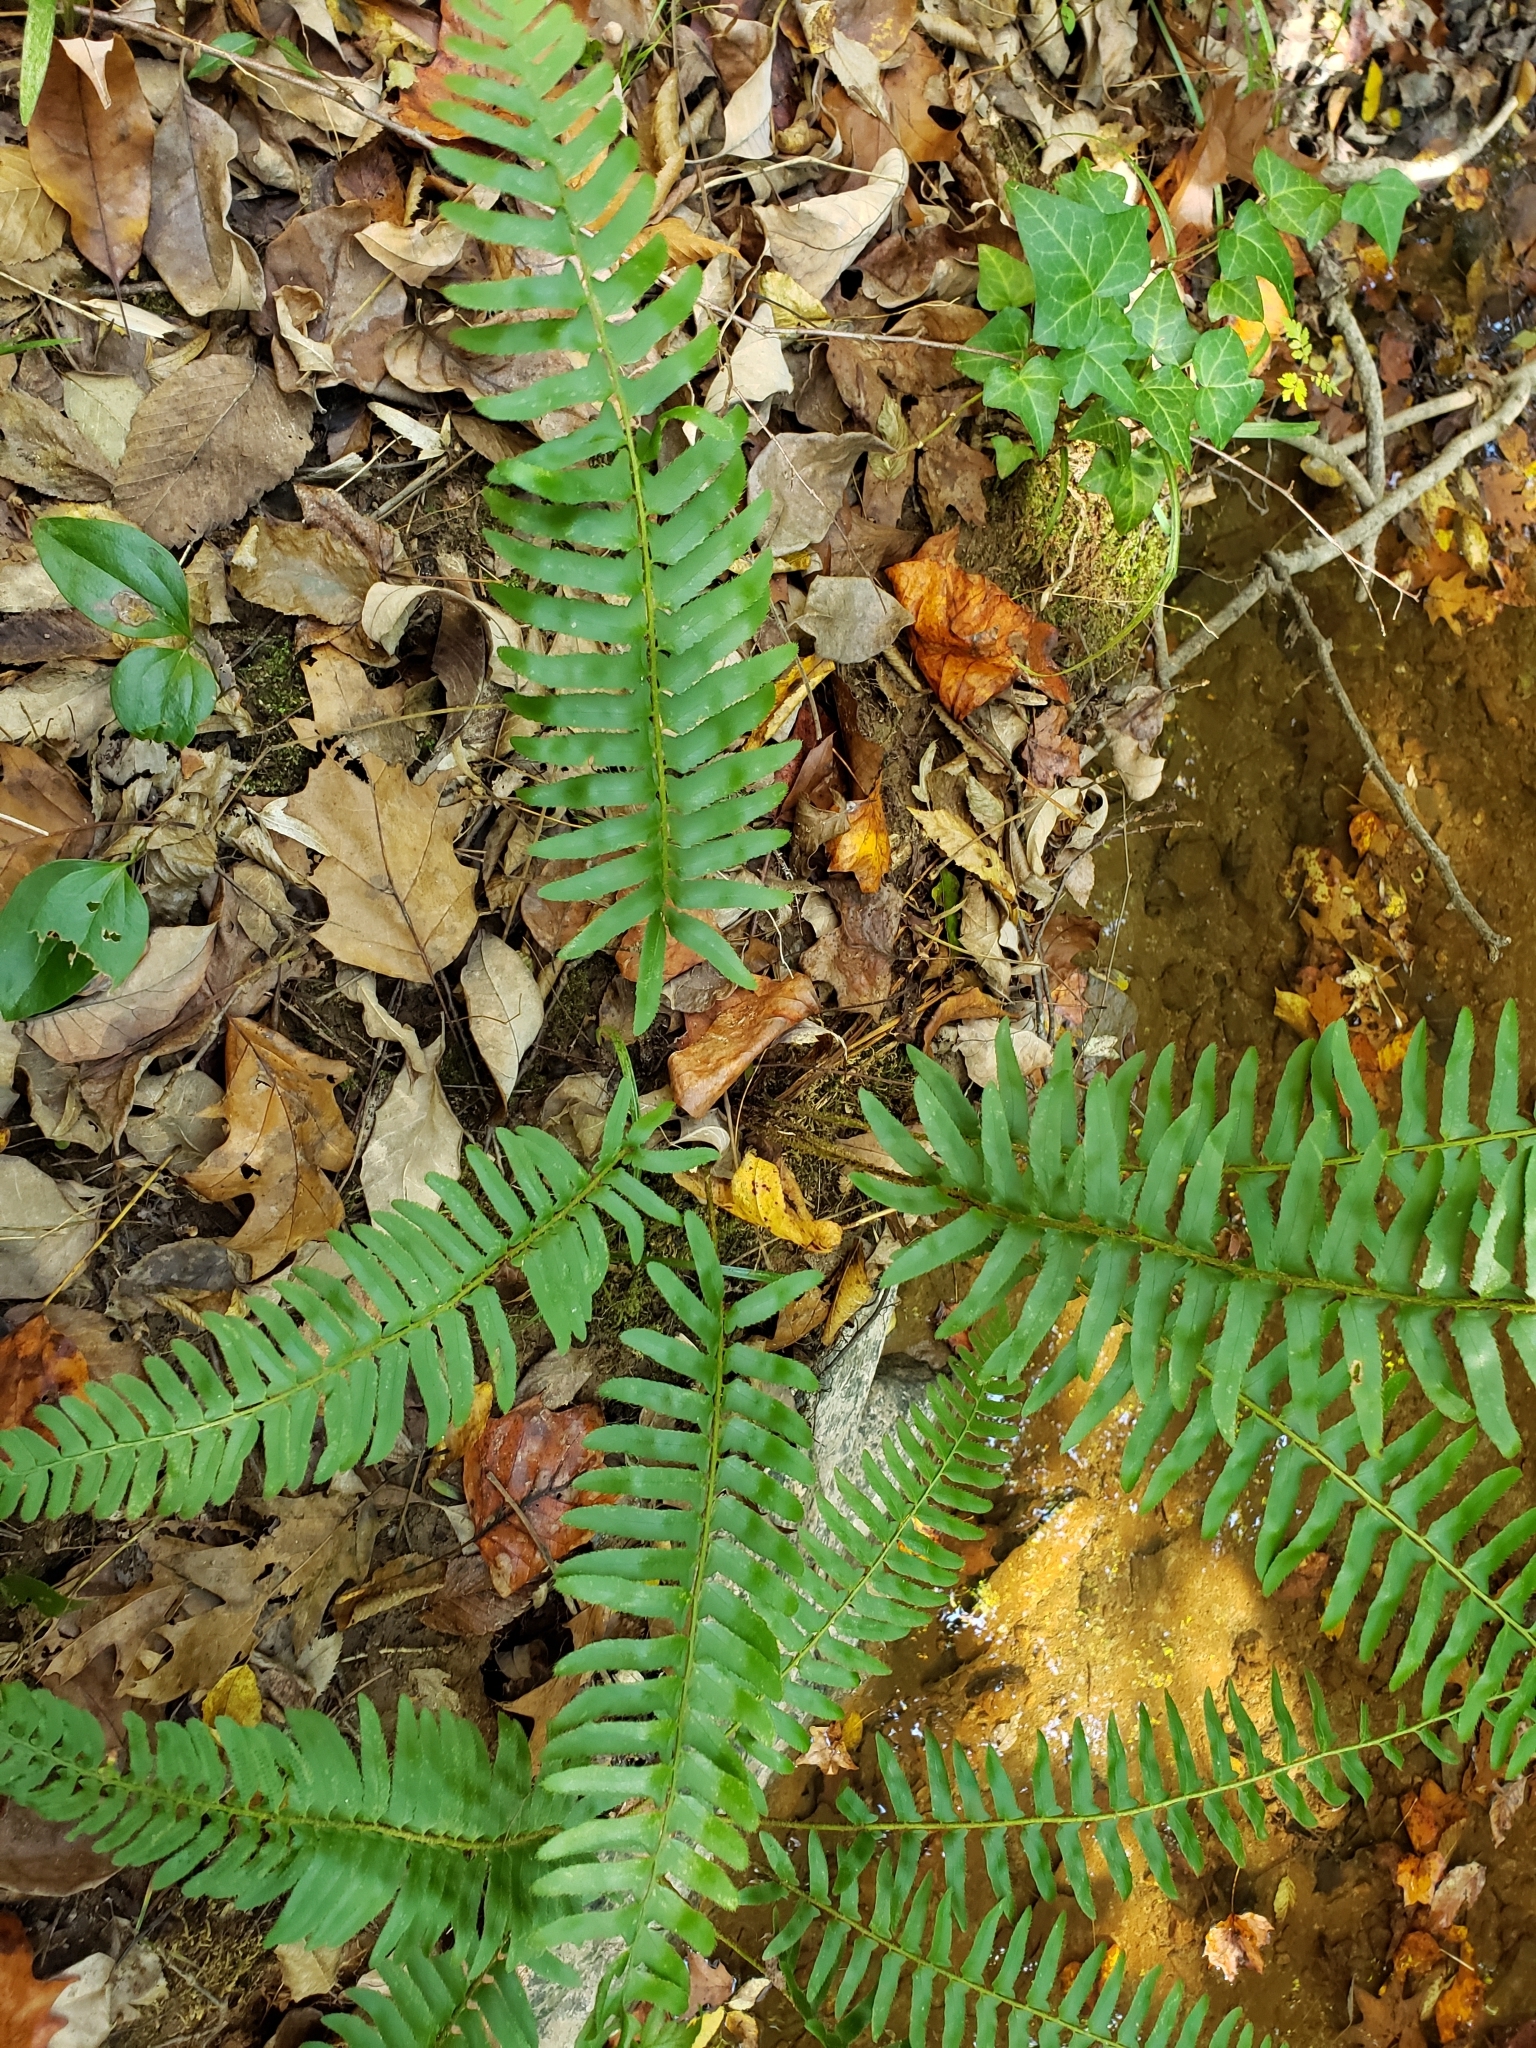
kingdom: Plantae
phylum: Tracheophyta
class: Polypodiopsida
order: Polypodiales
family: Dryopteridaceae
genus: Polystichum
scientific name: Polystichum acrostichoides
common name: Christmas fern
